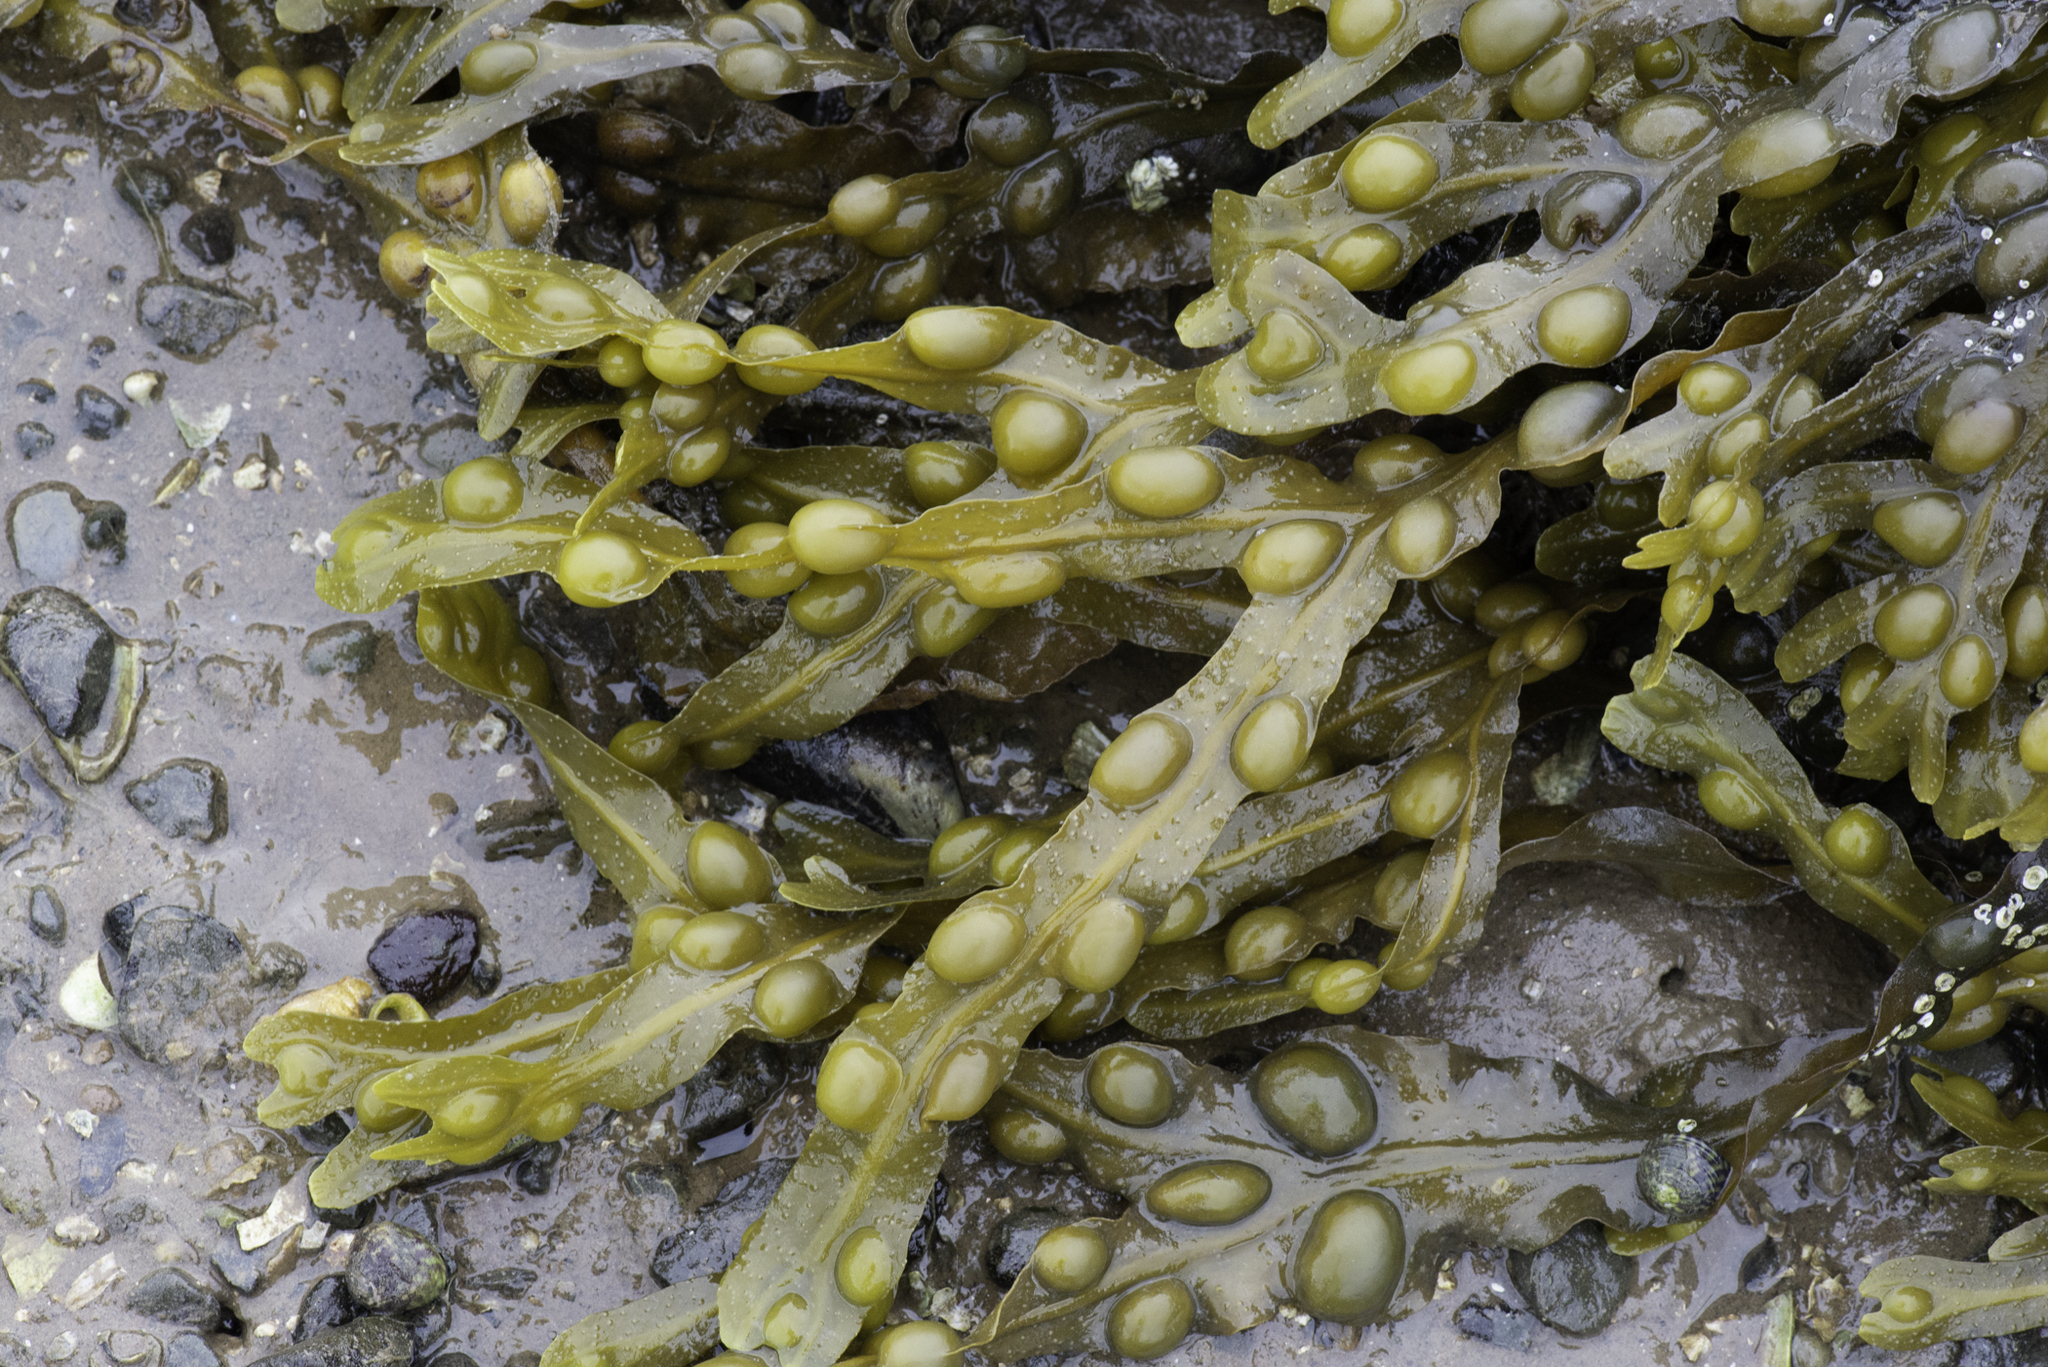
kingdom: Chromista
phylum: Ochrophyta
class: Phaeophyceae
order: Fucales
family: Fucaceae
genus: Fucus
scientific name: Fucus vesiculosus
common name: Bladder wrack
